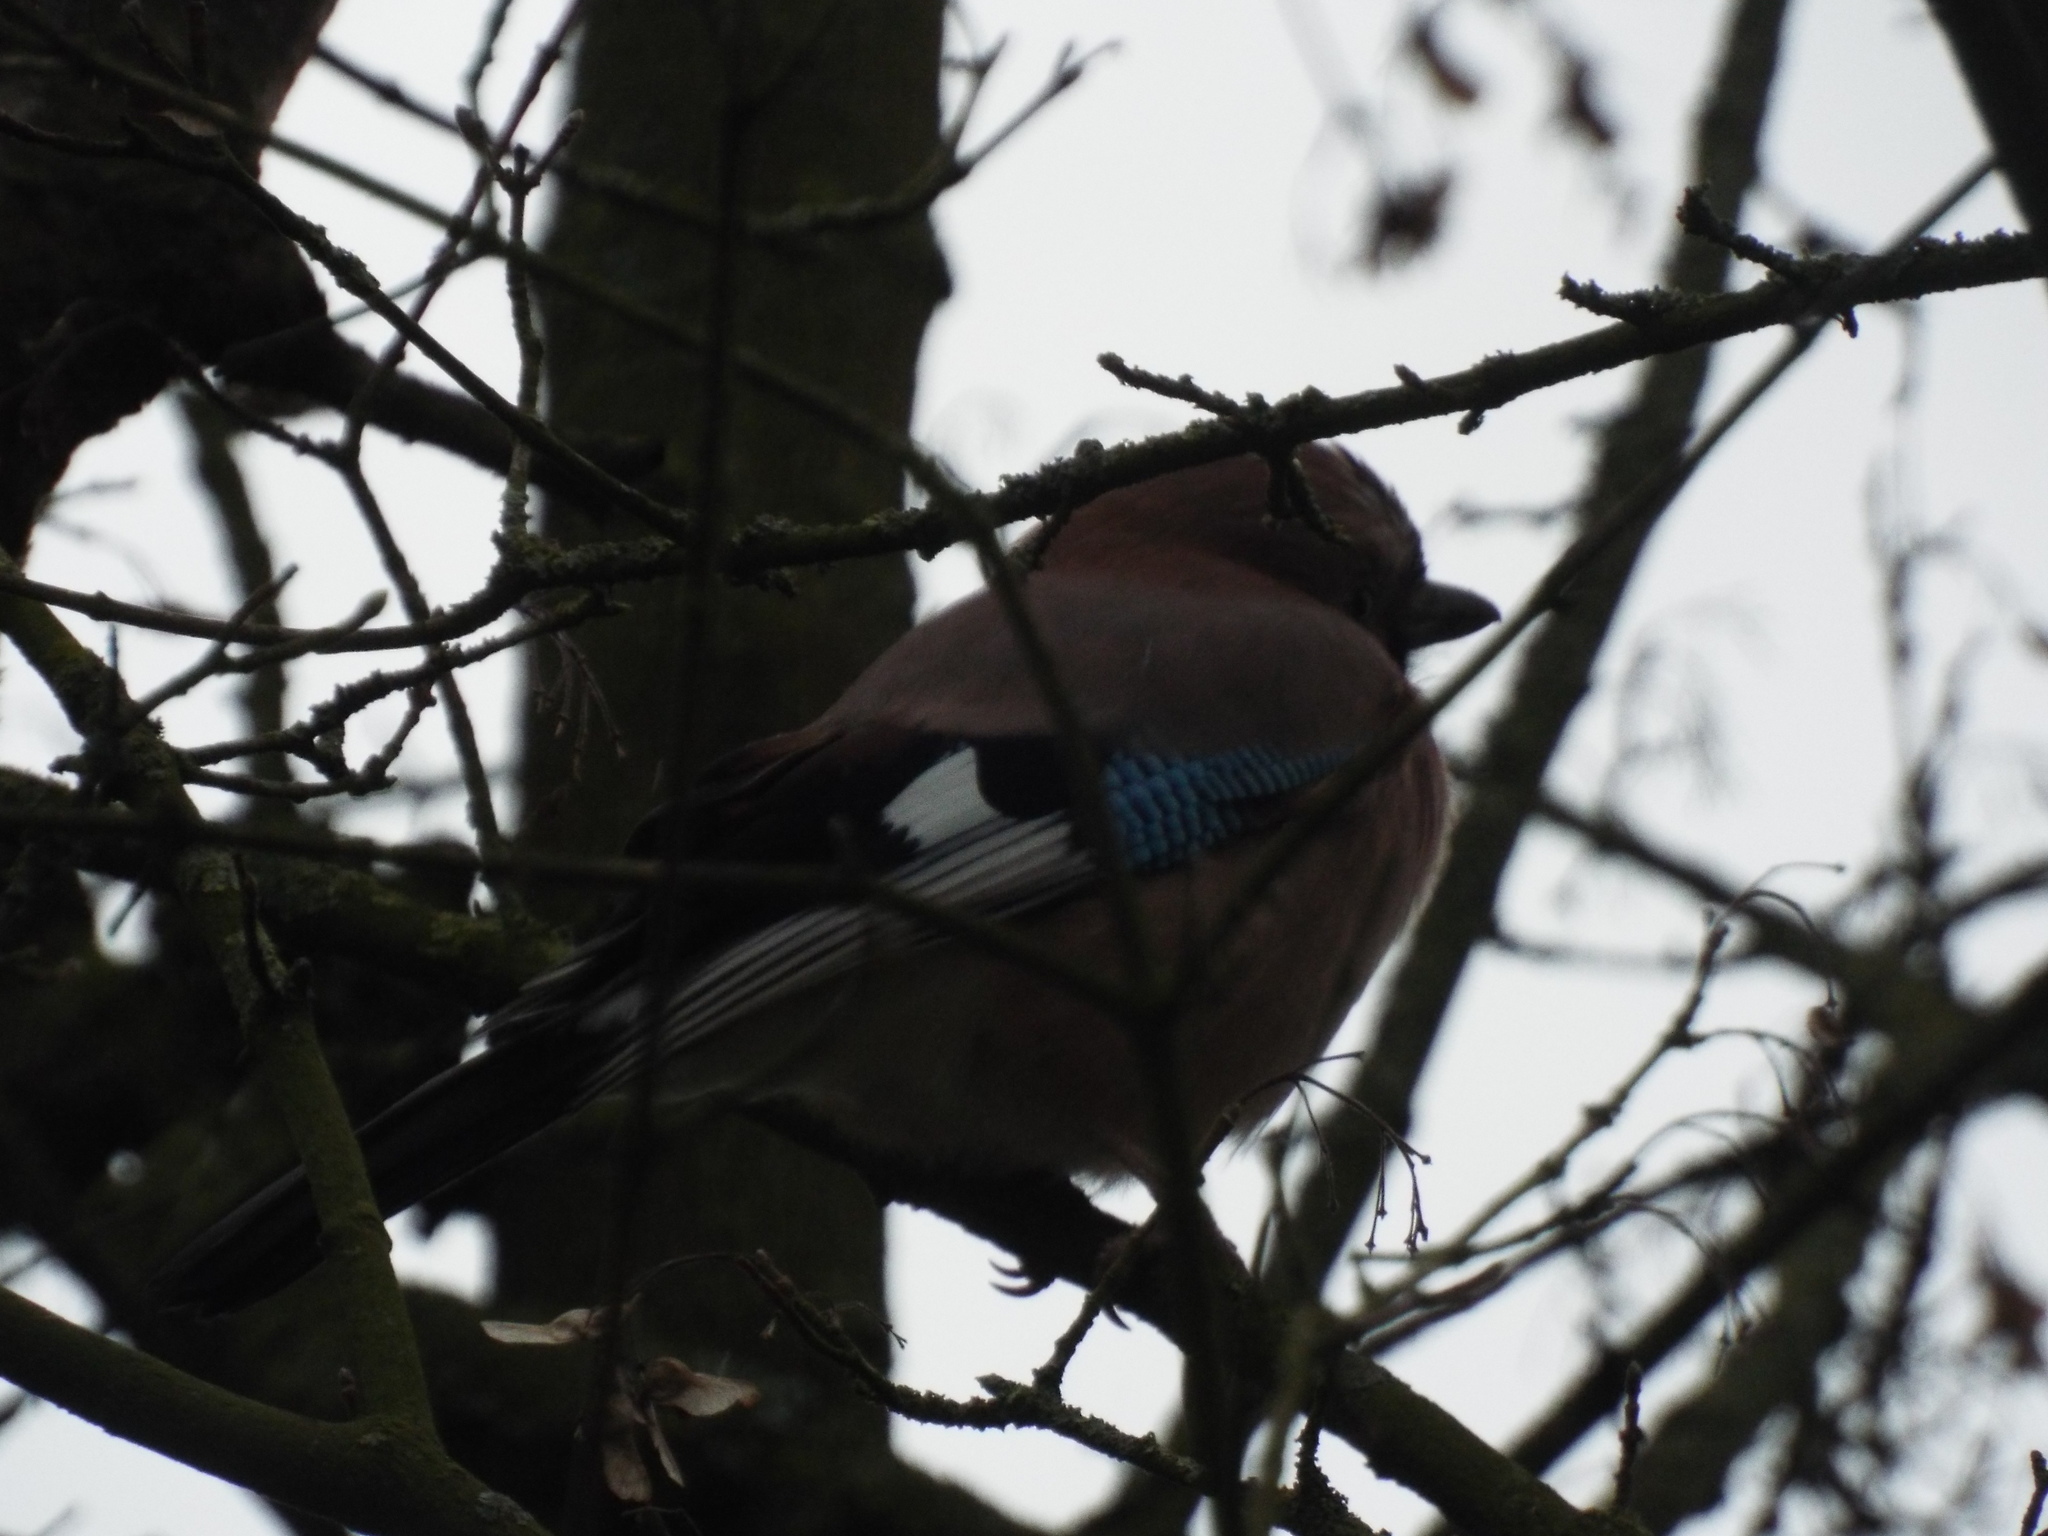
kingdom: Animalia
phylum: Chordata
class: Aves
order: Passeriformes
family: Corvidae
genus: Garrulus
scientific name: Garrulus glandarius
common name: Eurasian jay
